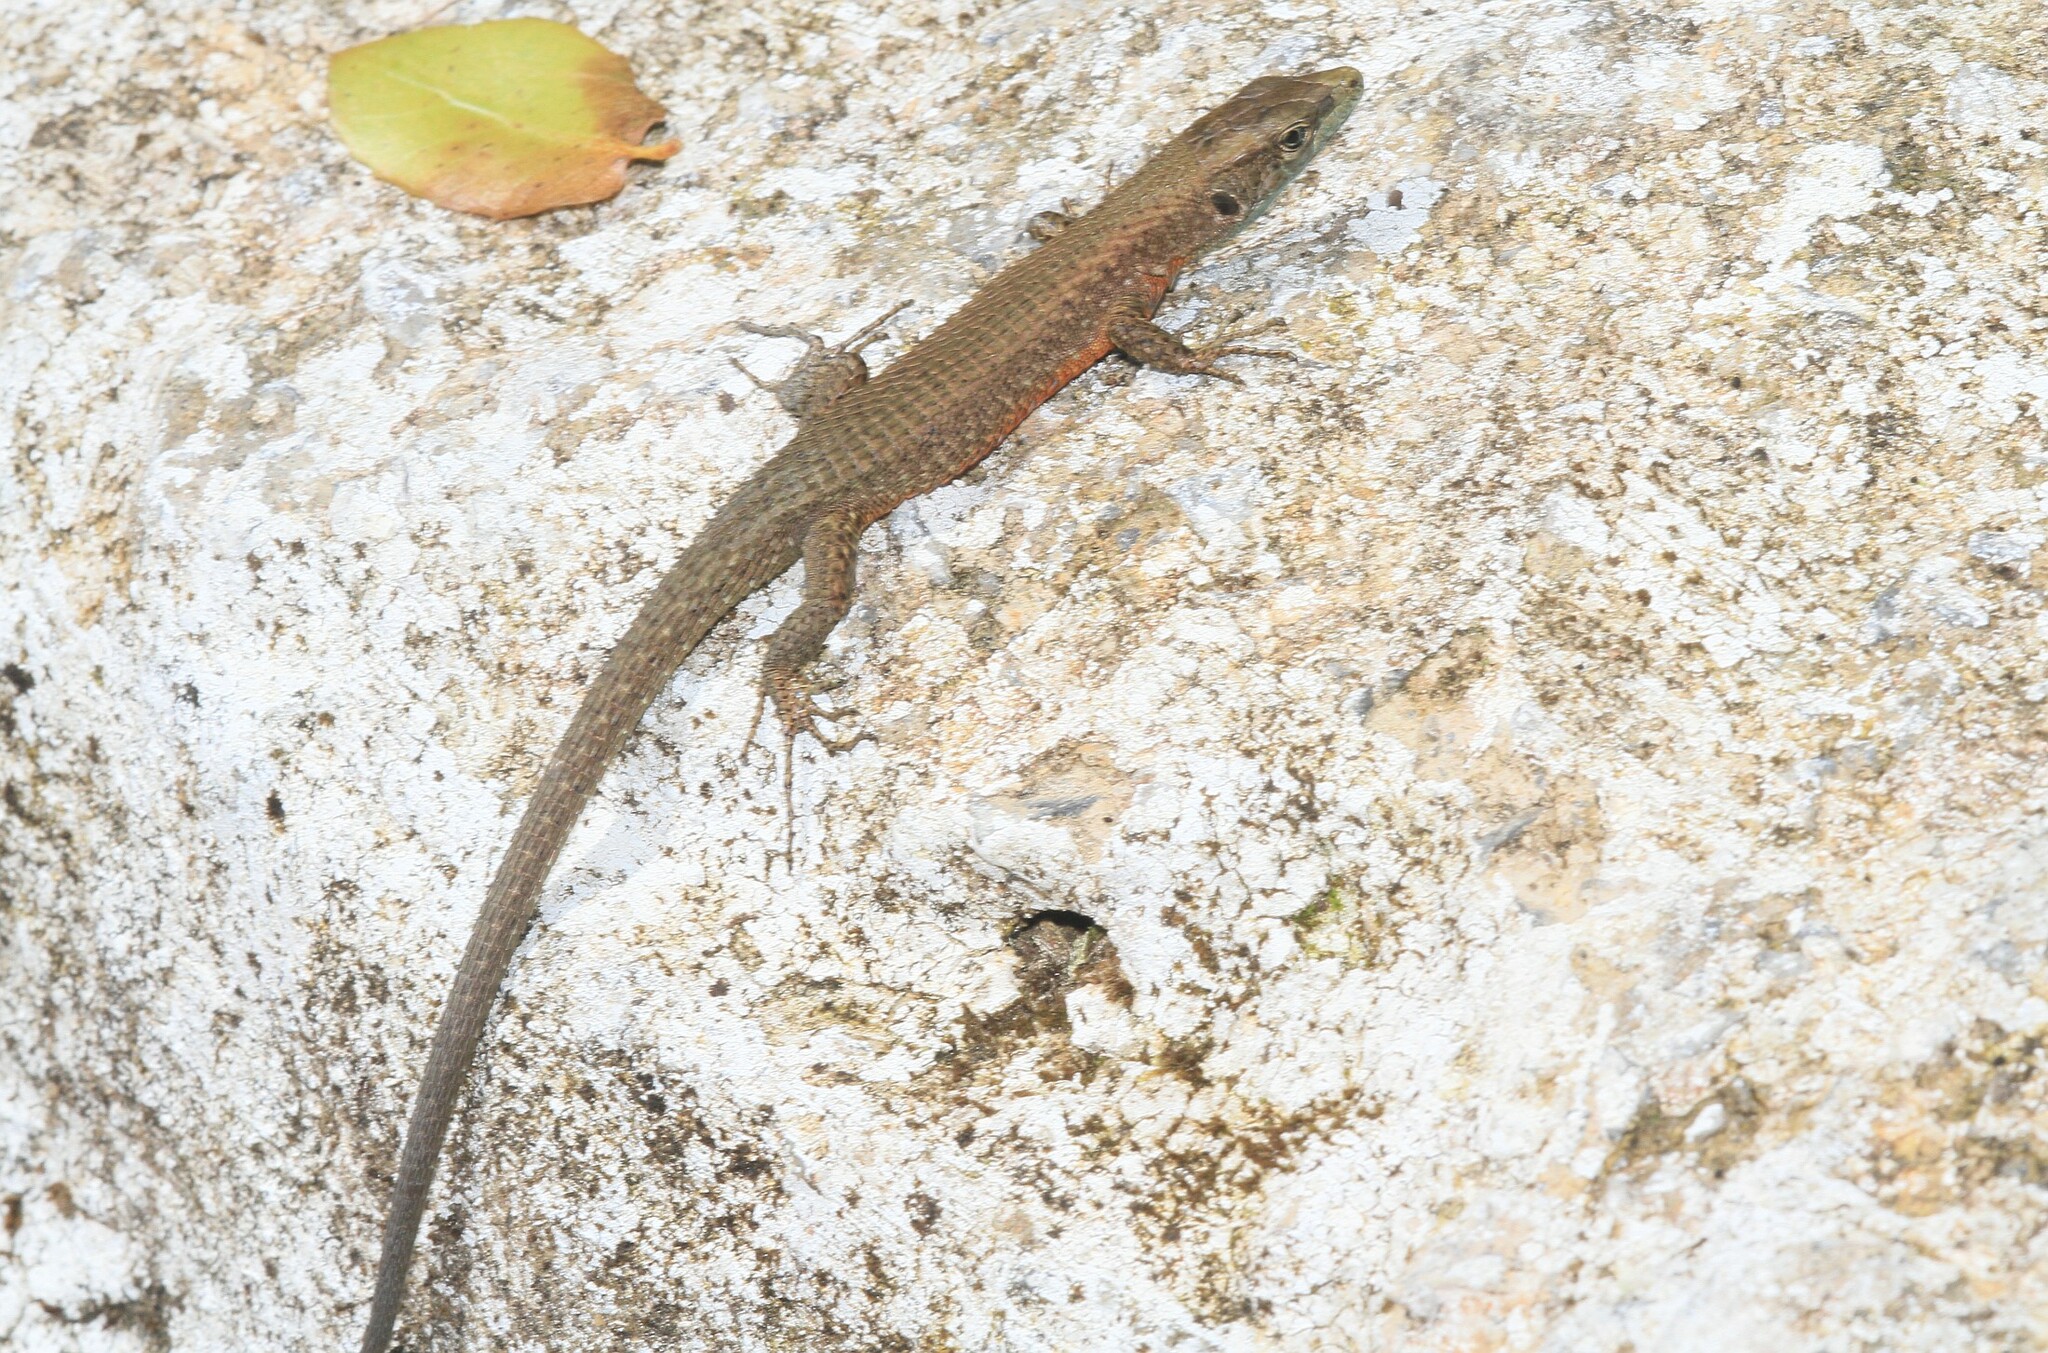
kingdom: Animalia
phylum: Chordata
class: Squamata
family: Lacertidae
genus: Algyroides
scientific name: Algyroides nigropunctatus
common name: Blue-throated keeled lizard
